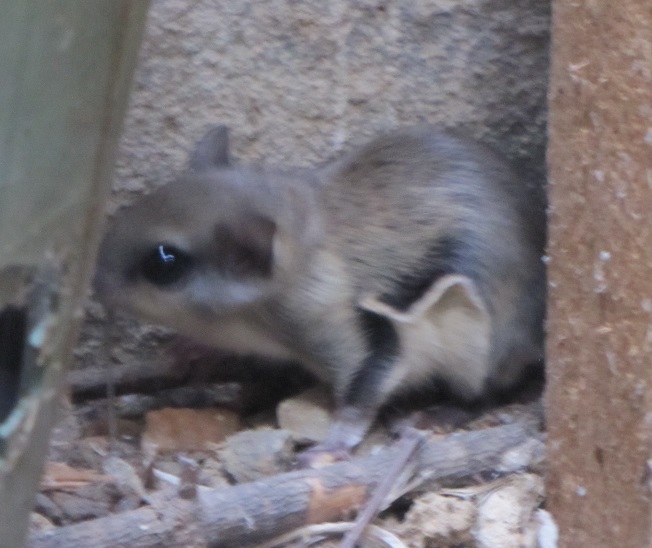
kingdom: Animalia
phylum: Chordata
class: Mammalia
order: Rodentia
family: Sciuridae
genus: Glaucomys
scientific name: Glaucomys volans
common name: Southern flying squirrel
